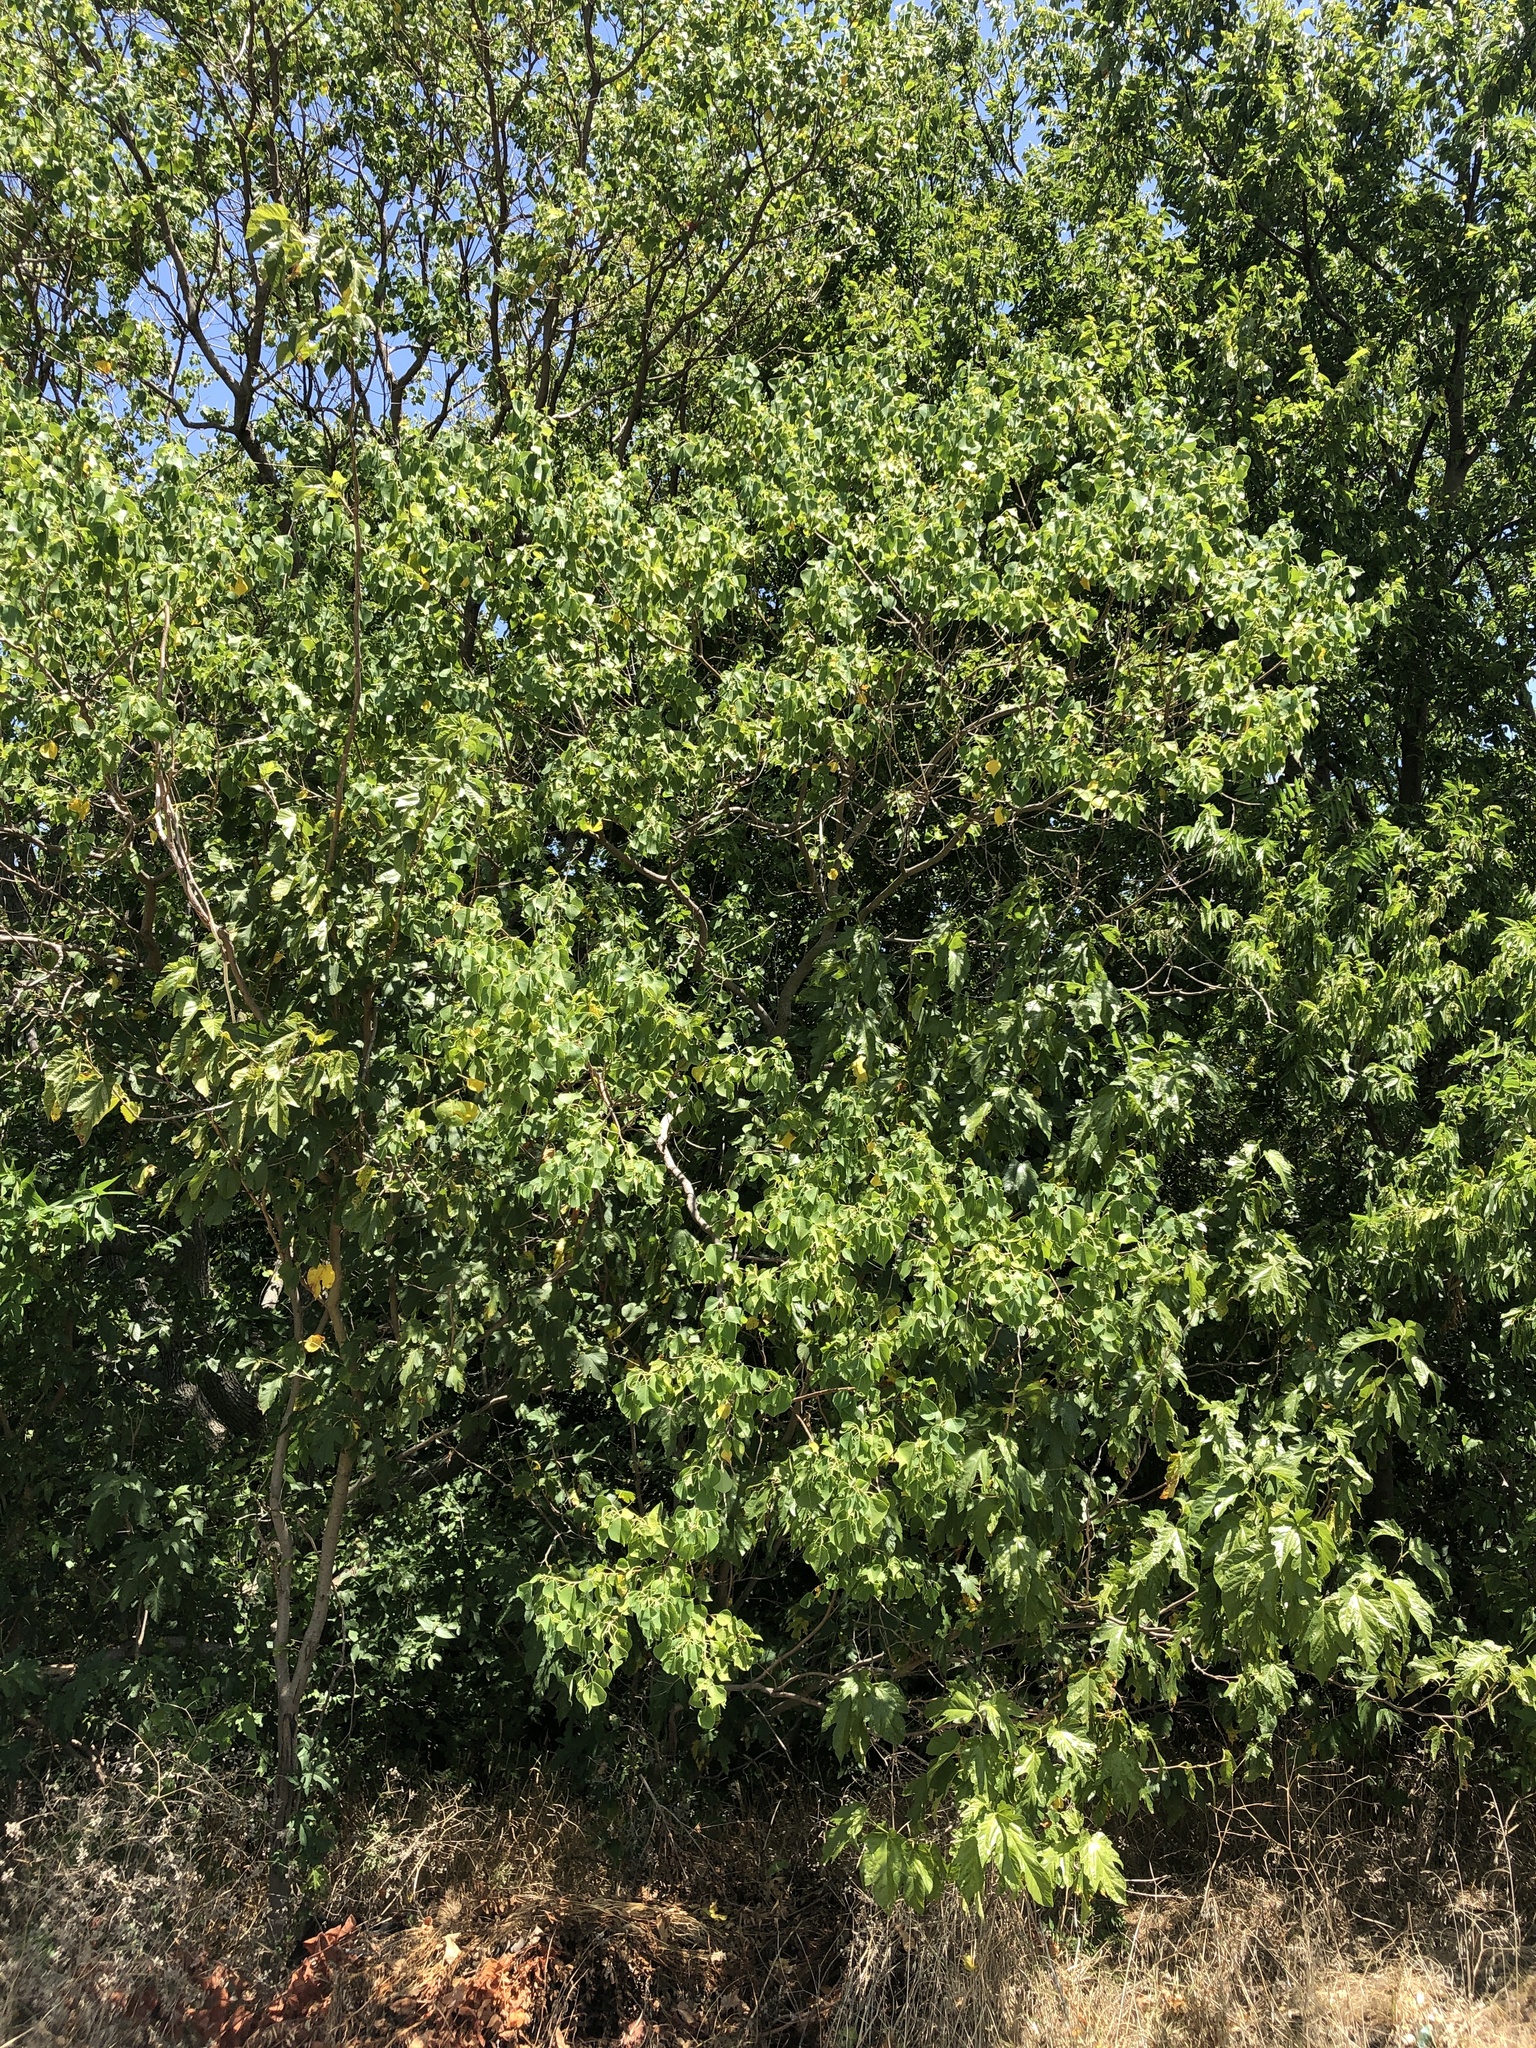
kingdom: Plantae
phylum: Tracheophyta
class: Magnoliopsida
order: Malpighiales
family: Euphorbiaceae
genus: Triadica
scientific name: Triadica sebifera
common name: Chinese tallow
